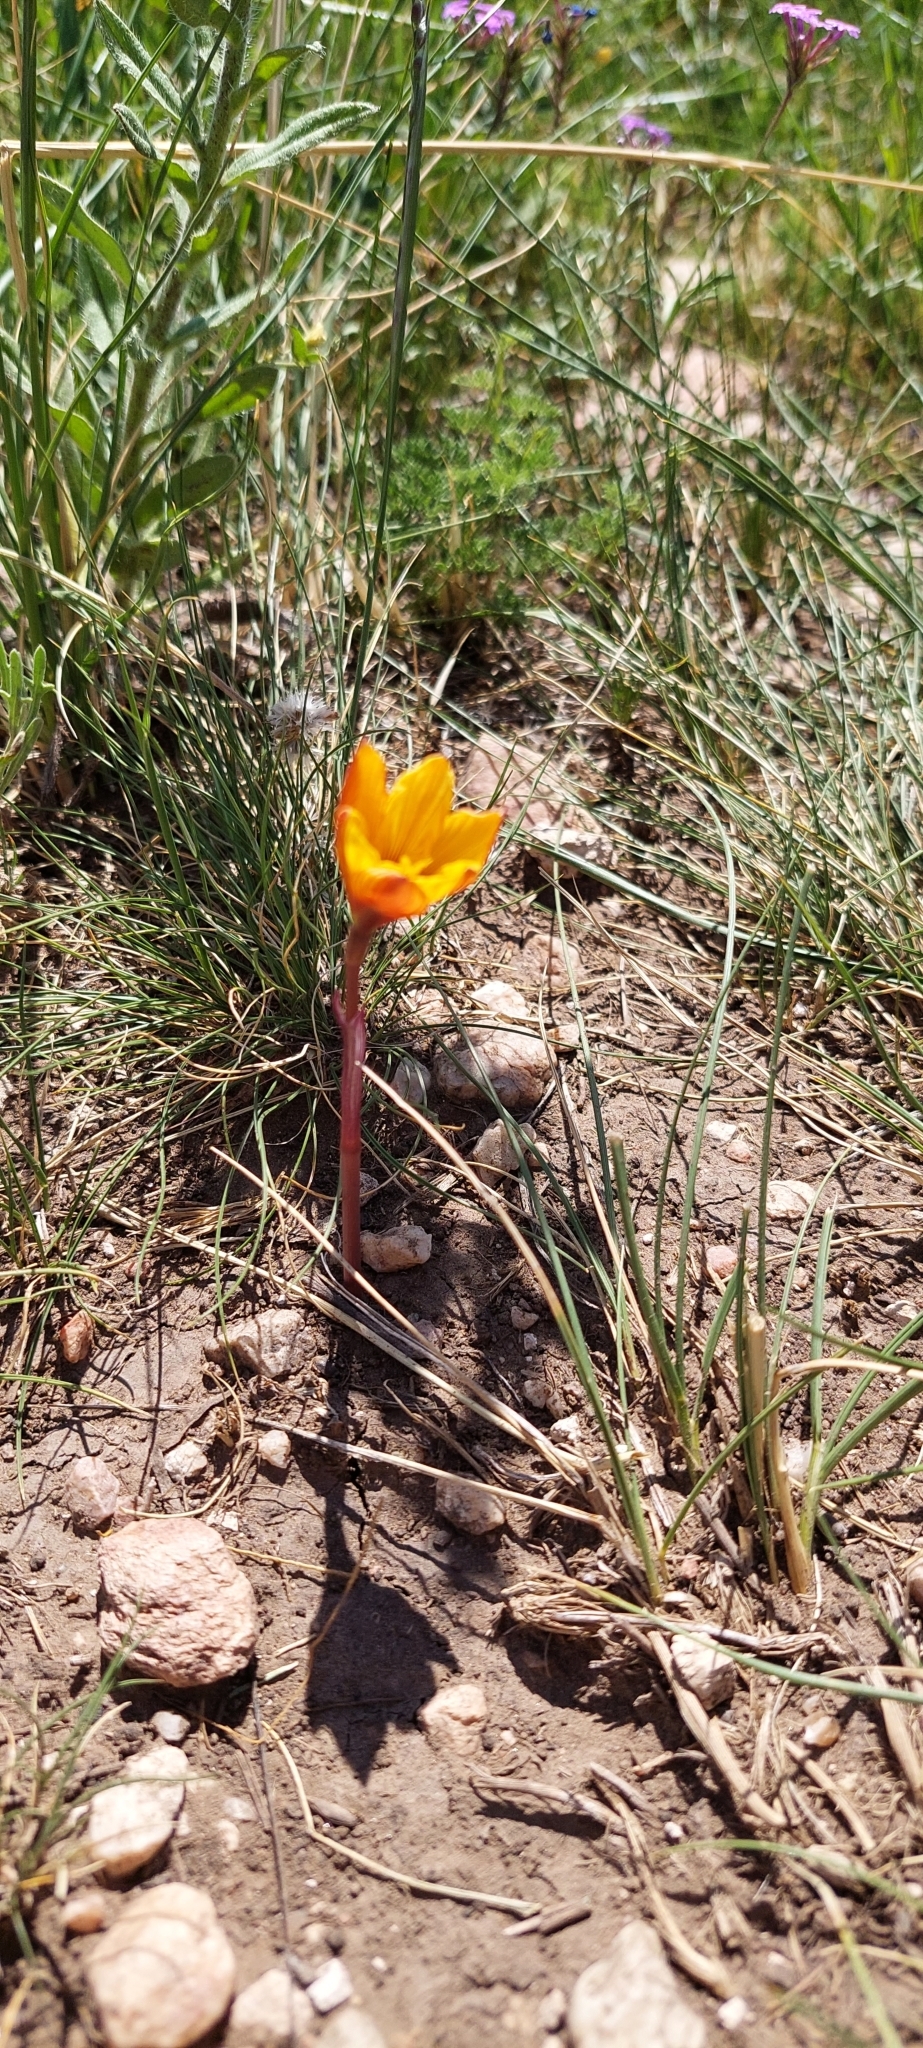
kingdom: Plantae
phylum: Tracheophyta
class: Liliopsida
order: Asparagales
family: Amaryllidaceae
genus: Zephyranthes
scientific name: Zephyranthes tubispatha
